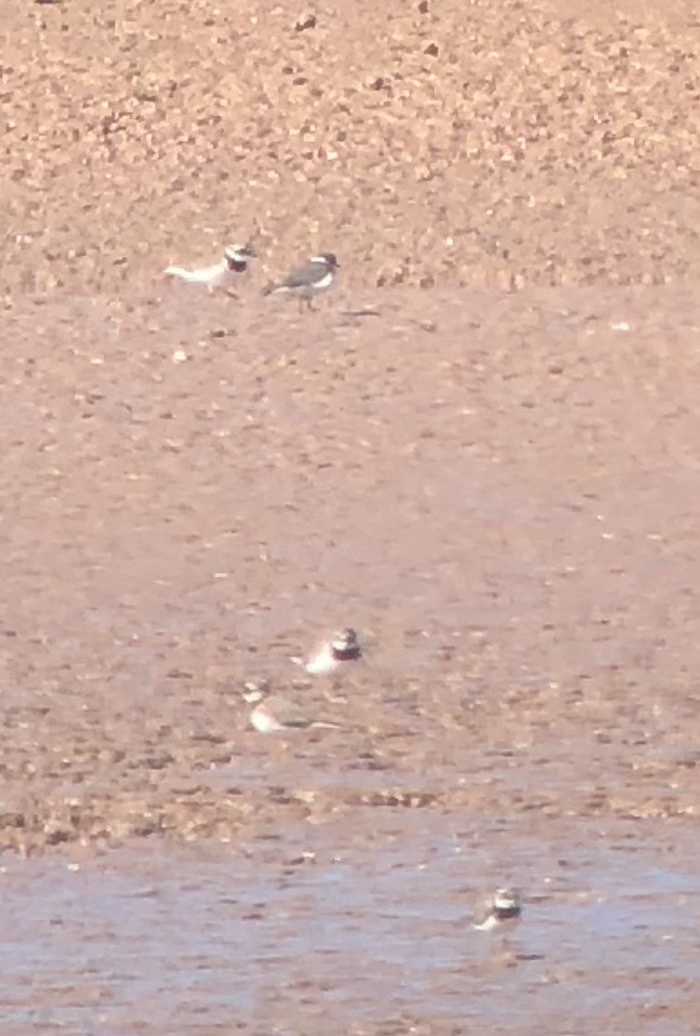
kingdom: Animalia
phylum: Chordata
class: Aves
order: Charadriiformes
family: Charadriidae
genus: Charadrius
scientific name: Charadrius hiaticula
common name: Common ringed plover
